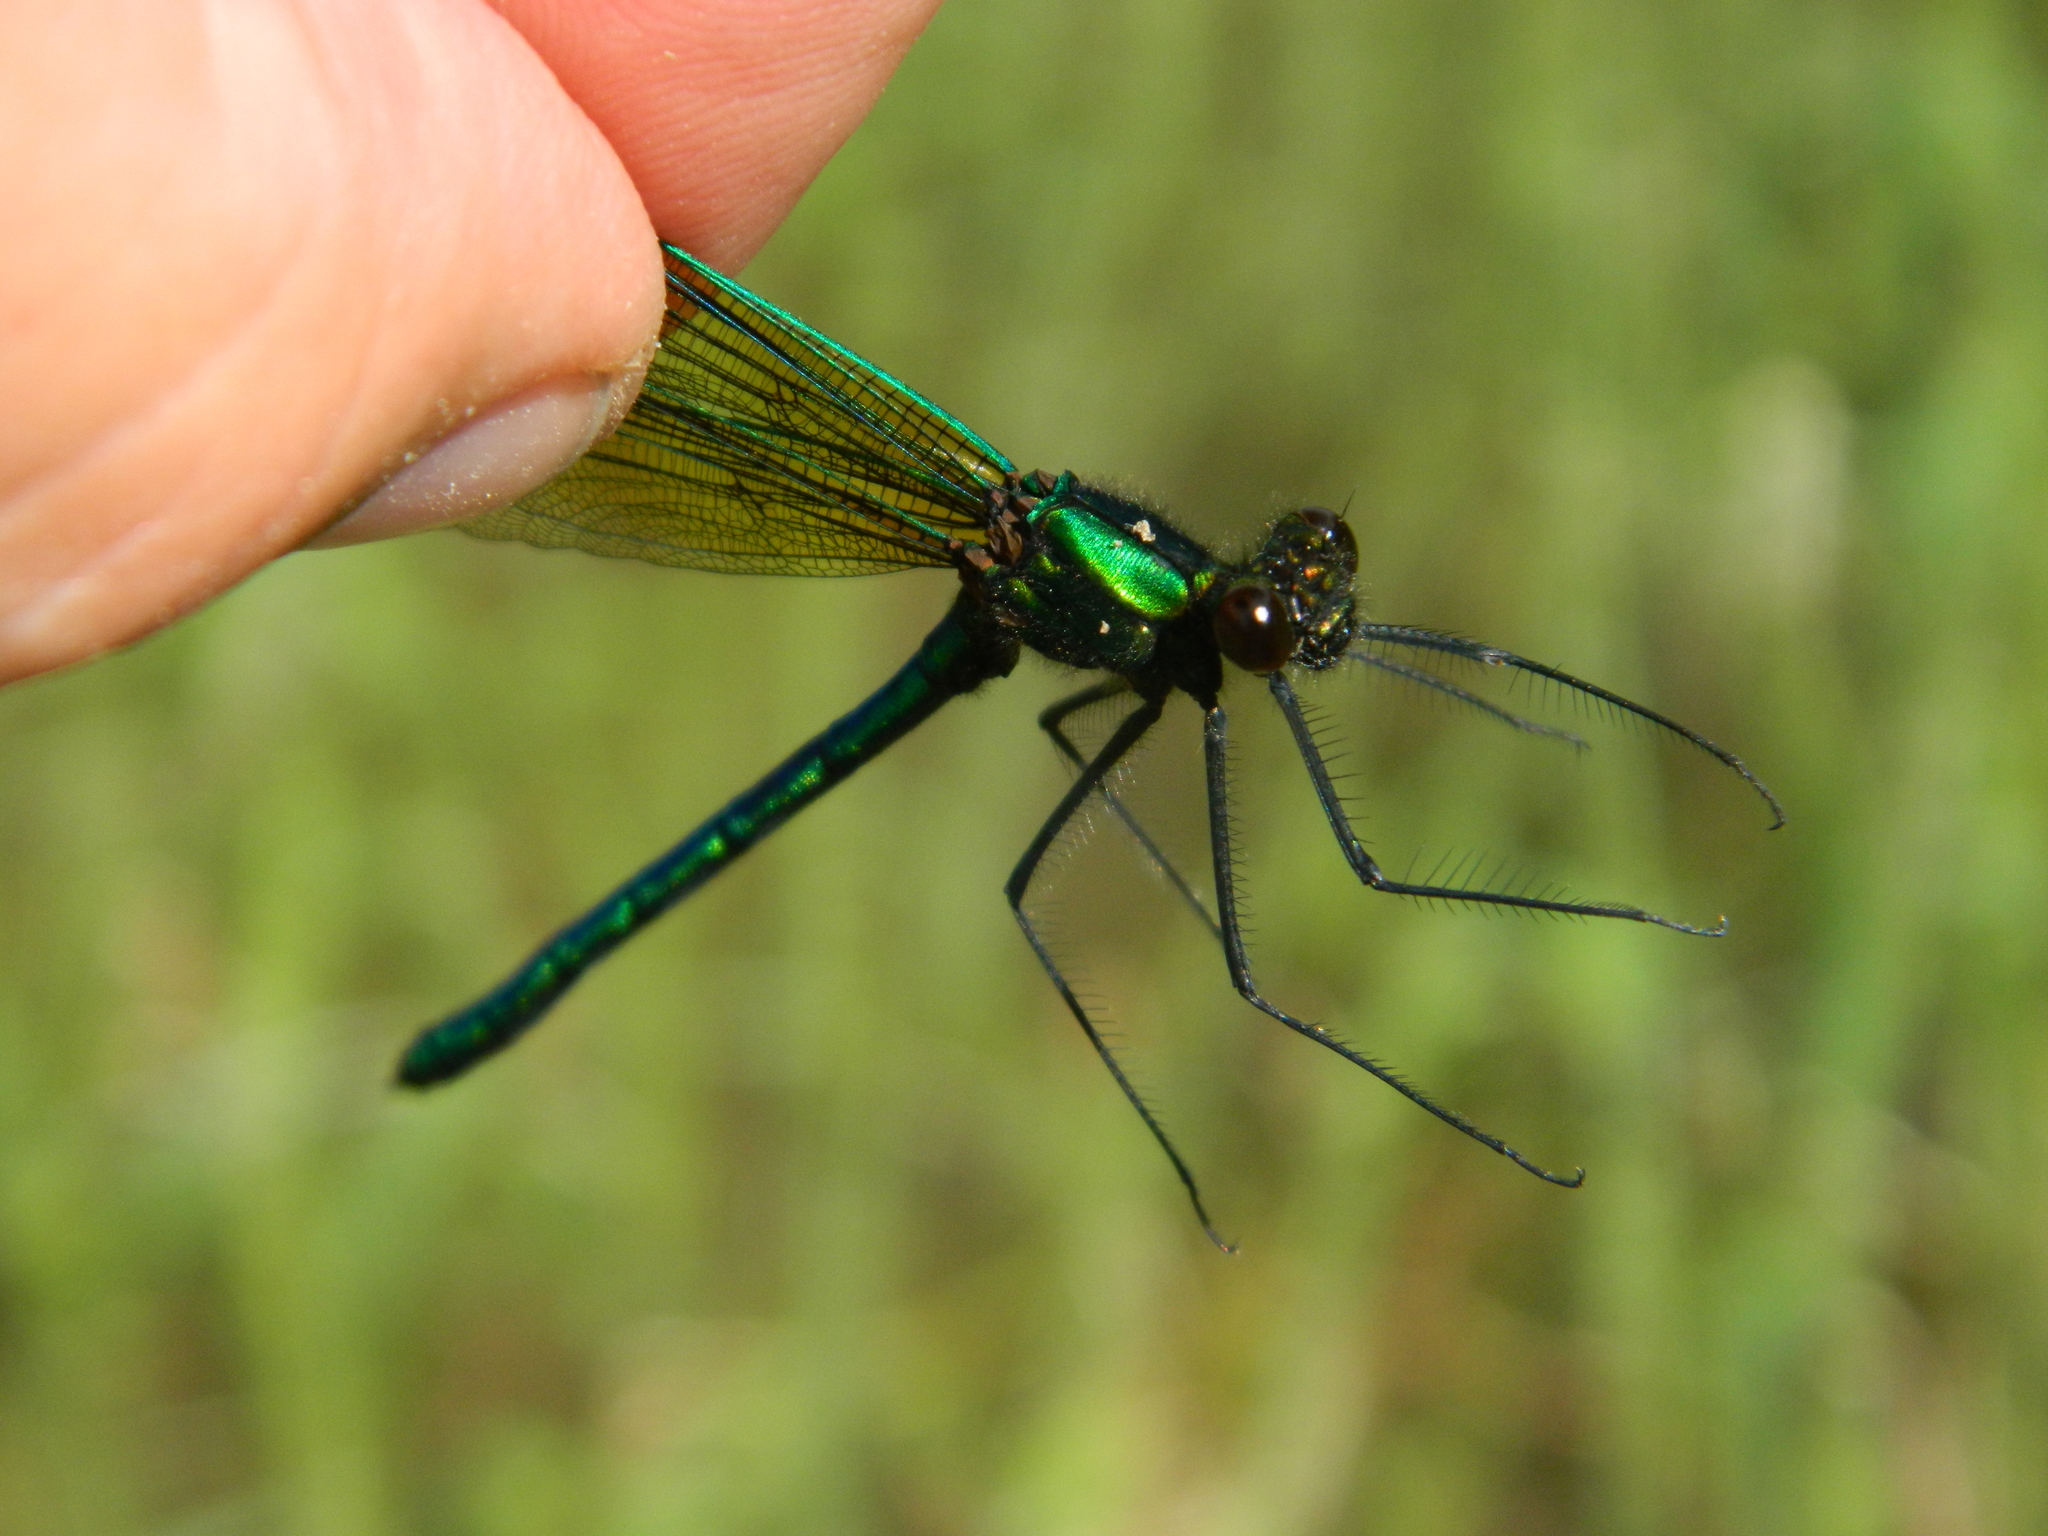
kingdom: Animalia
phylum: Arthropoda
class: Insecta
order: Odonata
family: Calopterygidae
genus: Calopteryx
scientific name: Calopteryx aequabilis
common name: River jewelwing
